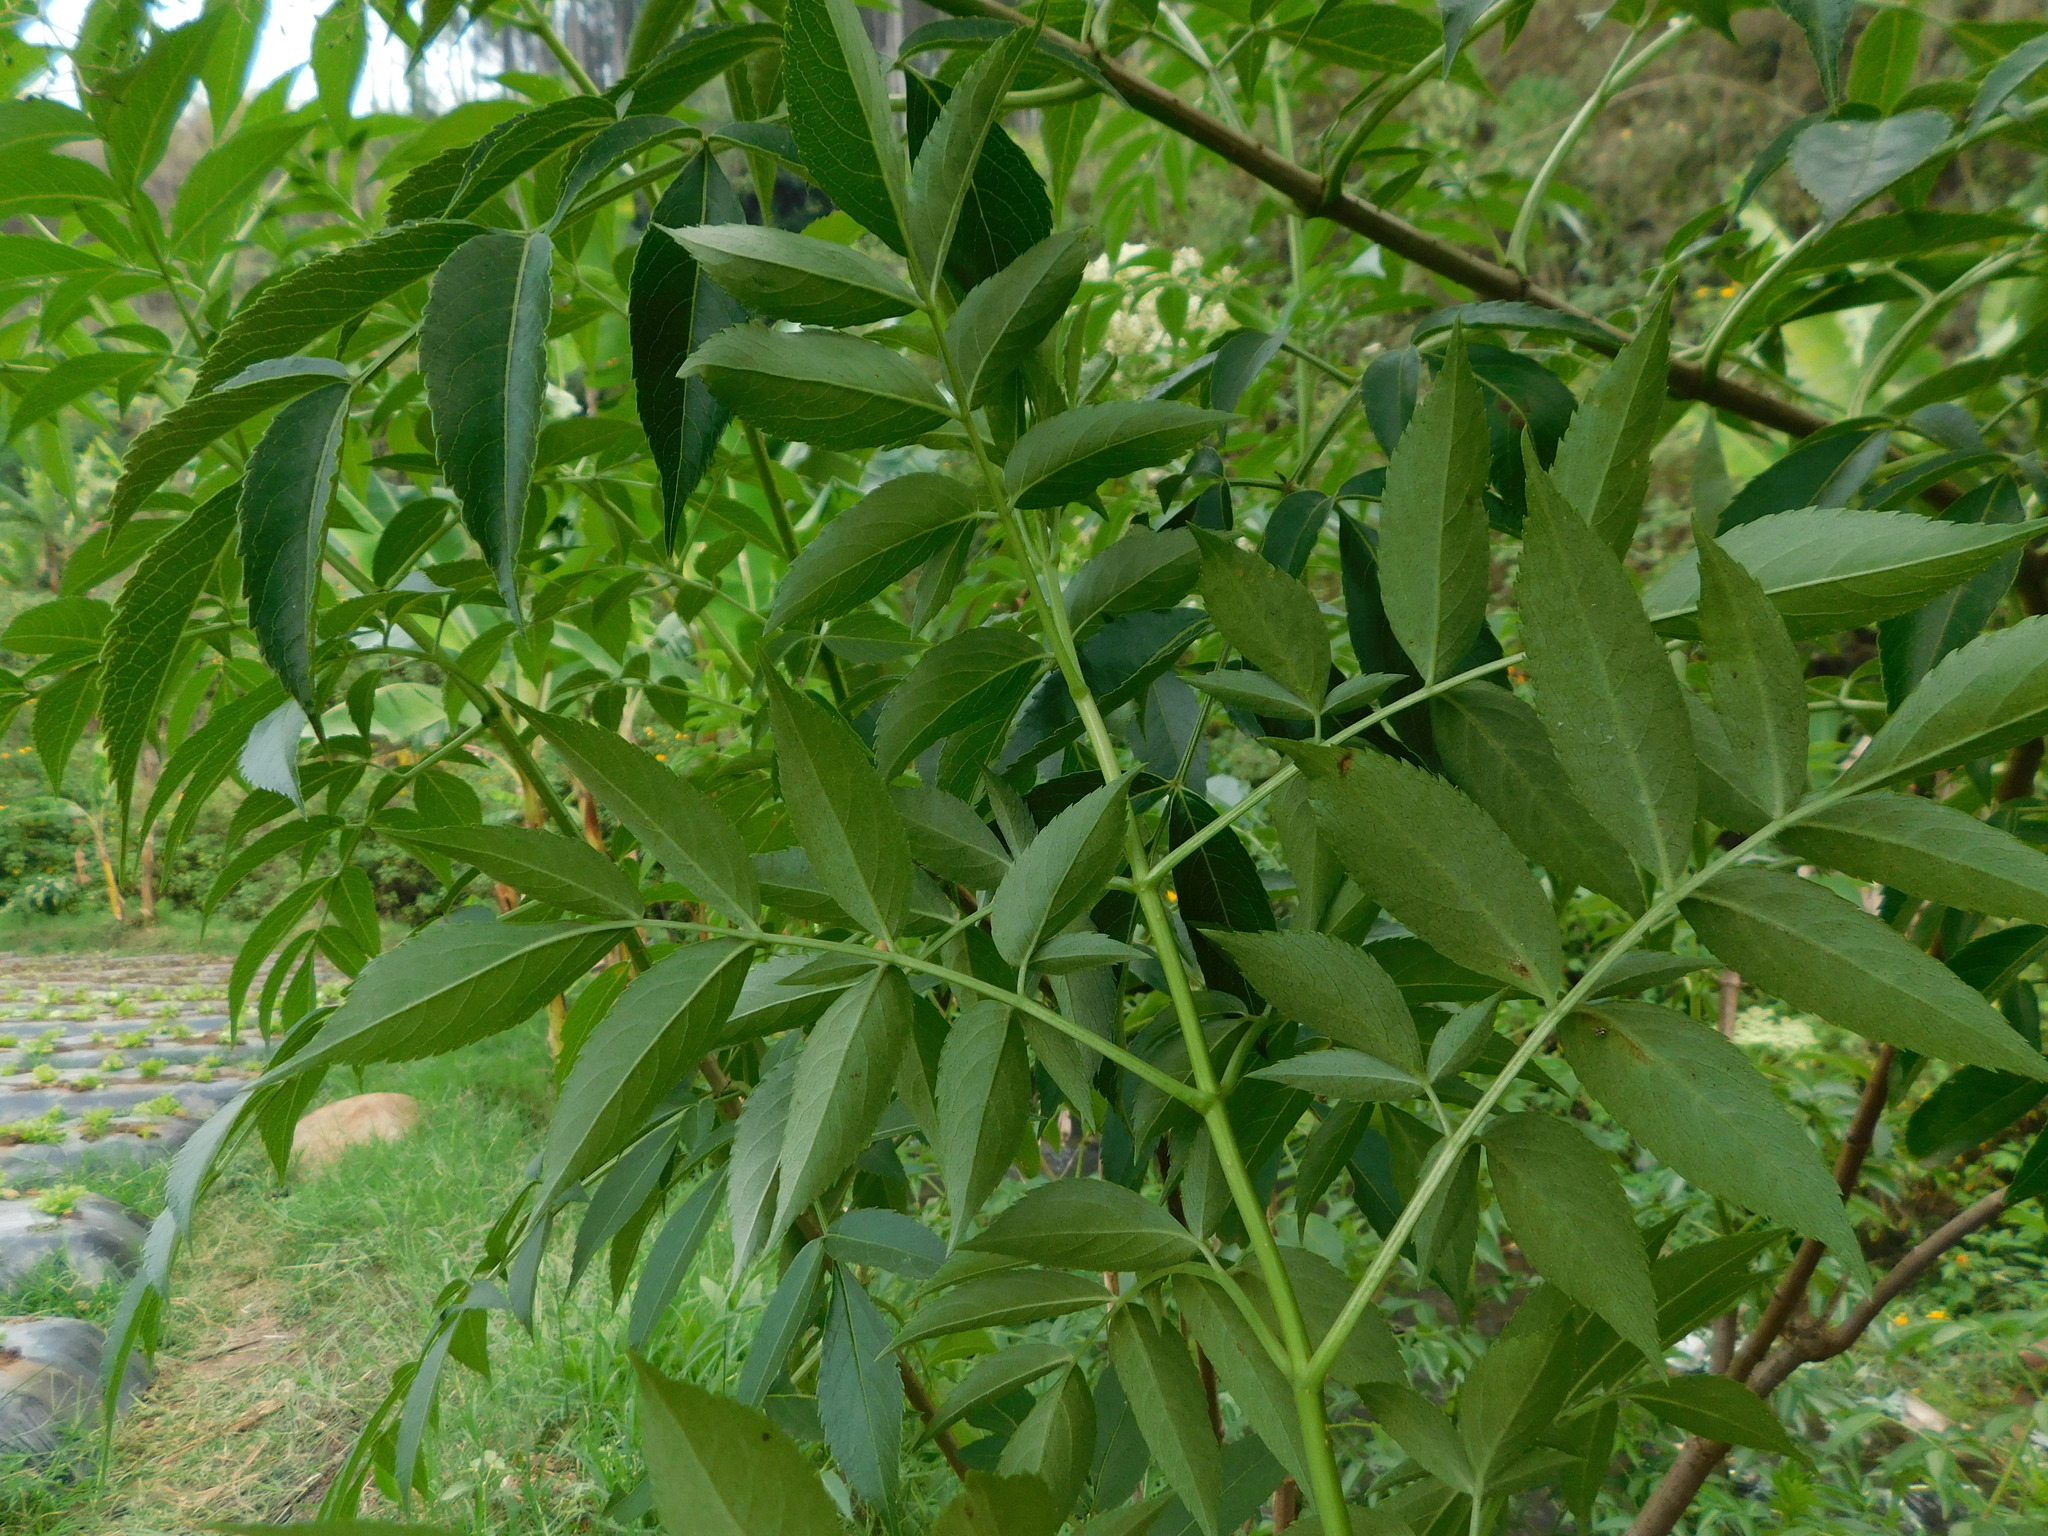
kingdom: Plantae
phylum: Tracheophyta
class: Magnoliopsida
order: Dipsacales
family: Viburnaceae
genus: Sambucus
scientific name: Sambucus javanica
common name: Chinese elder
